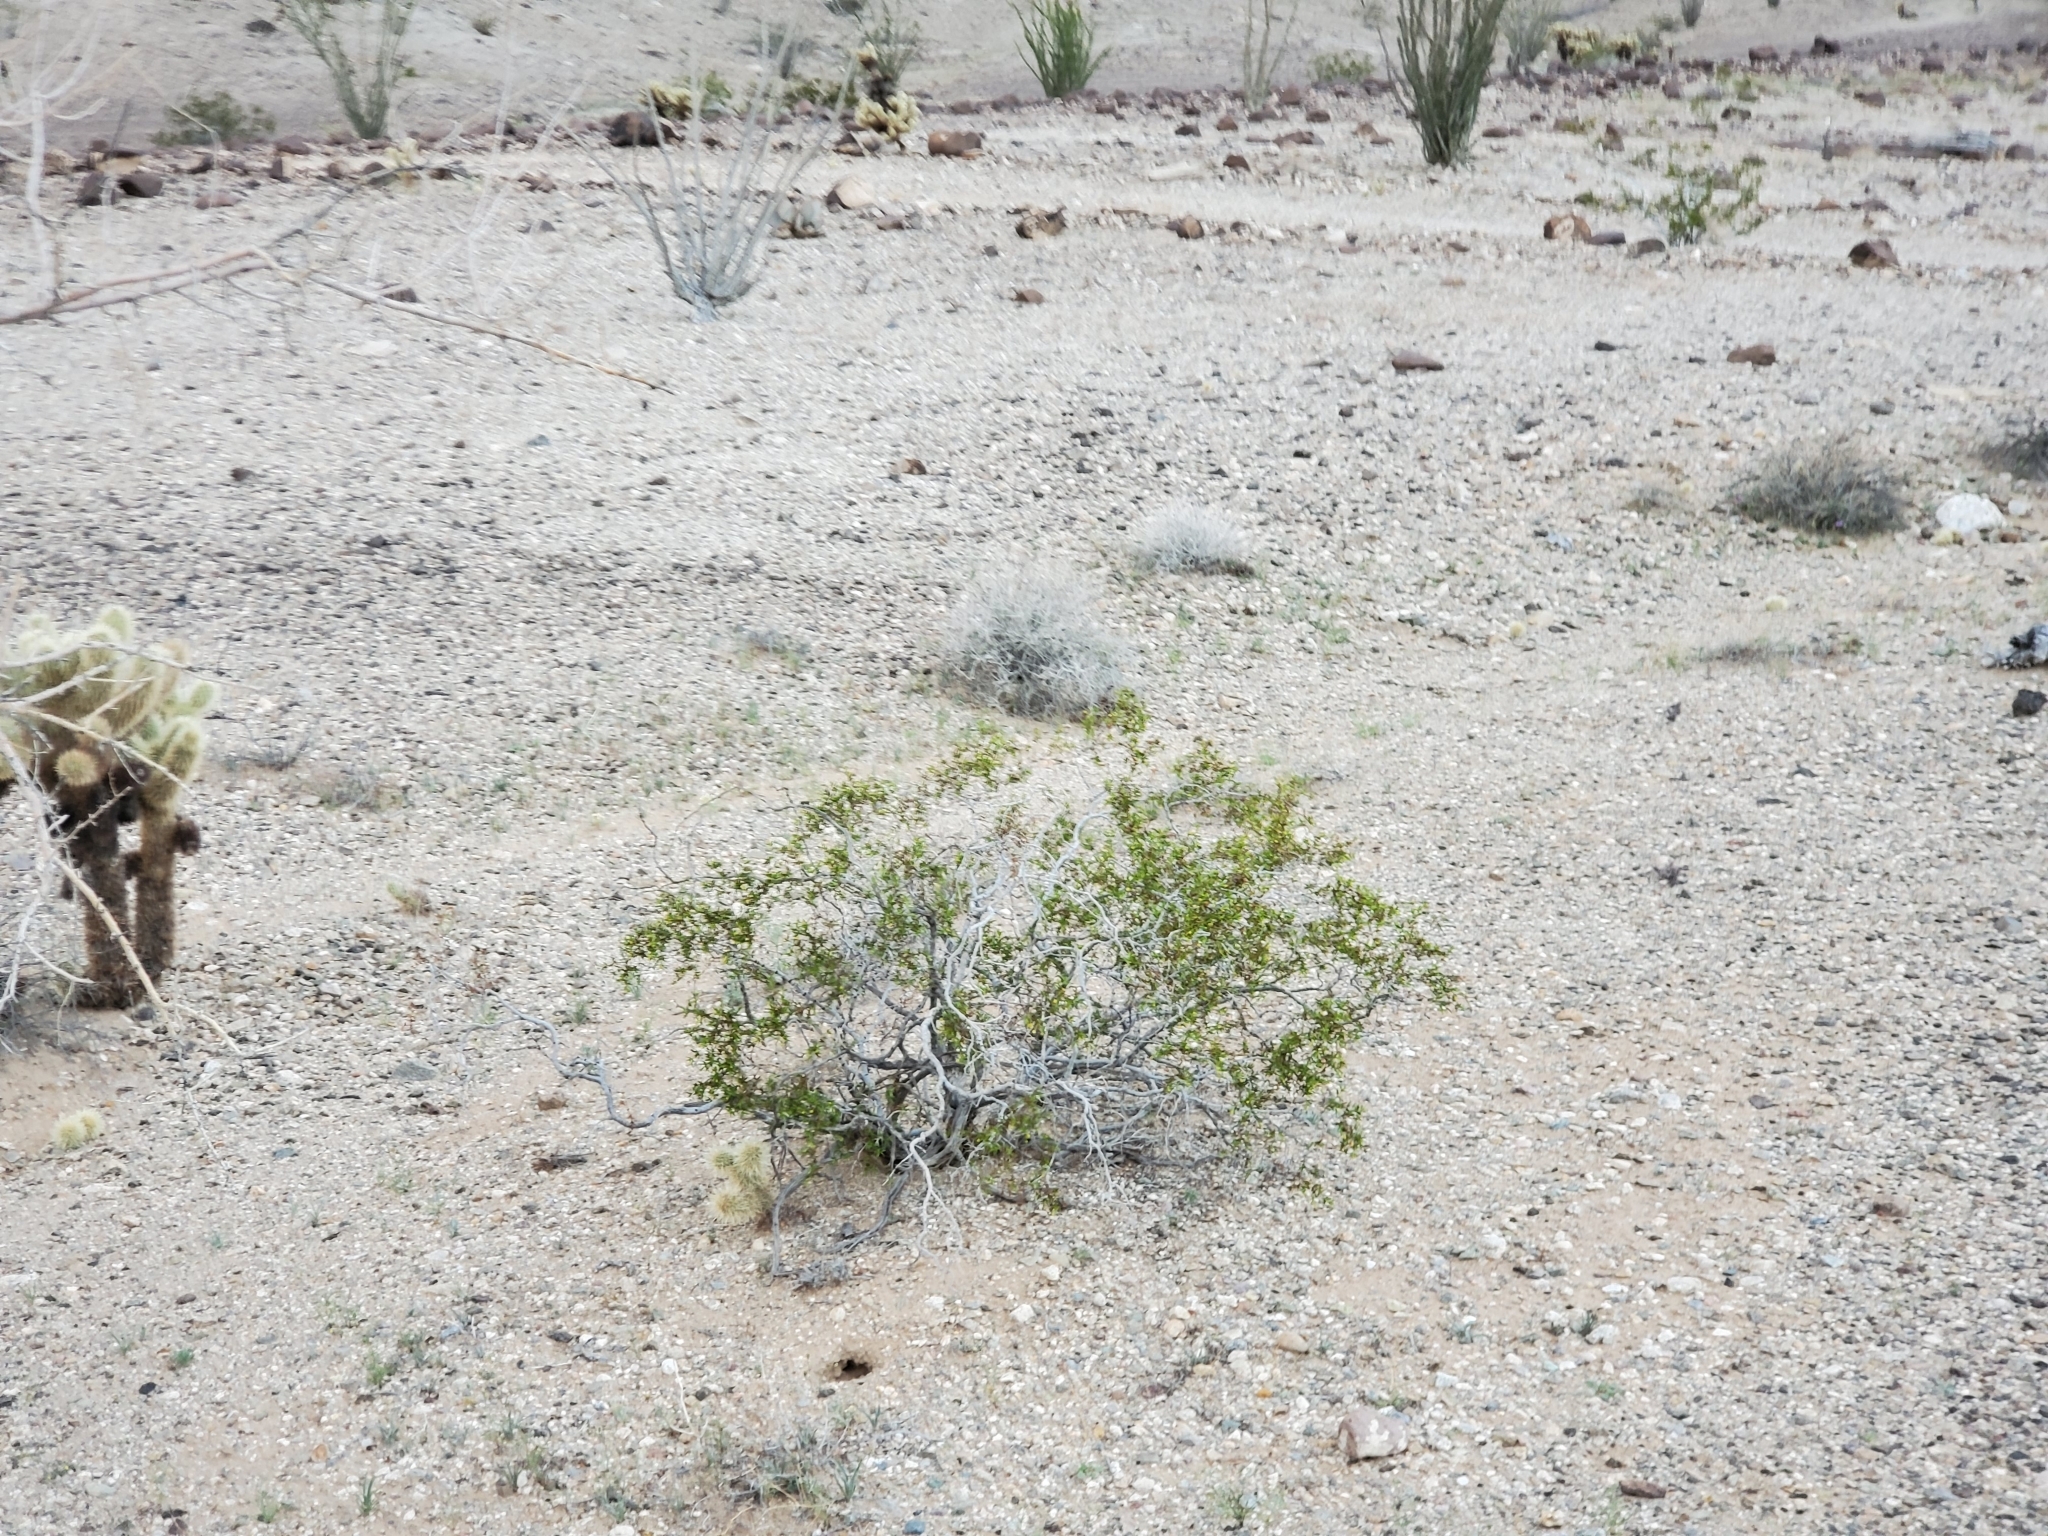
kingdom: Plantae
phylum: Tracheophyta
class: Magnoliopsida
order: Zygophyllales
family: Zygophyllaceae
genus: Larrea
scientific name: Larrea tridentata
